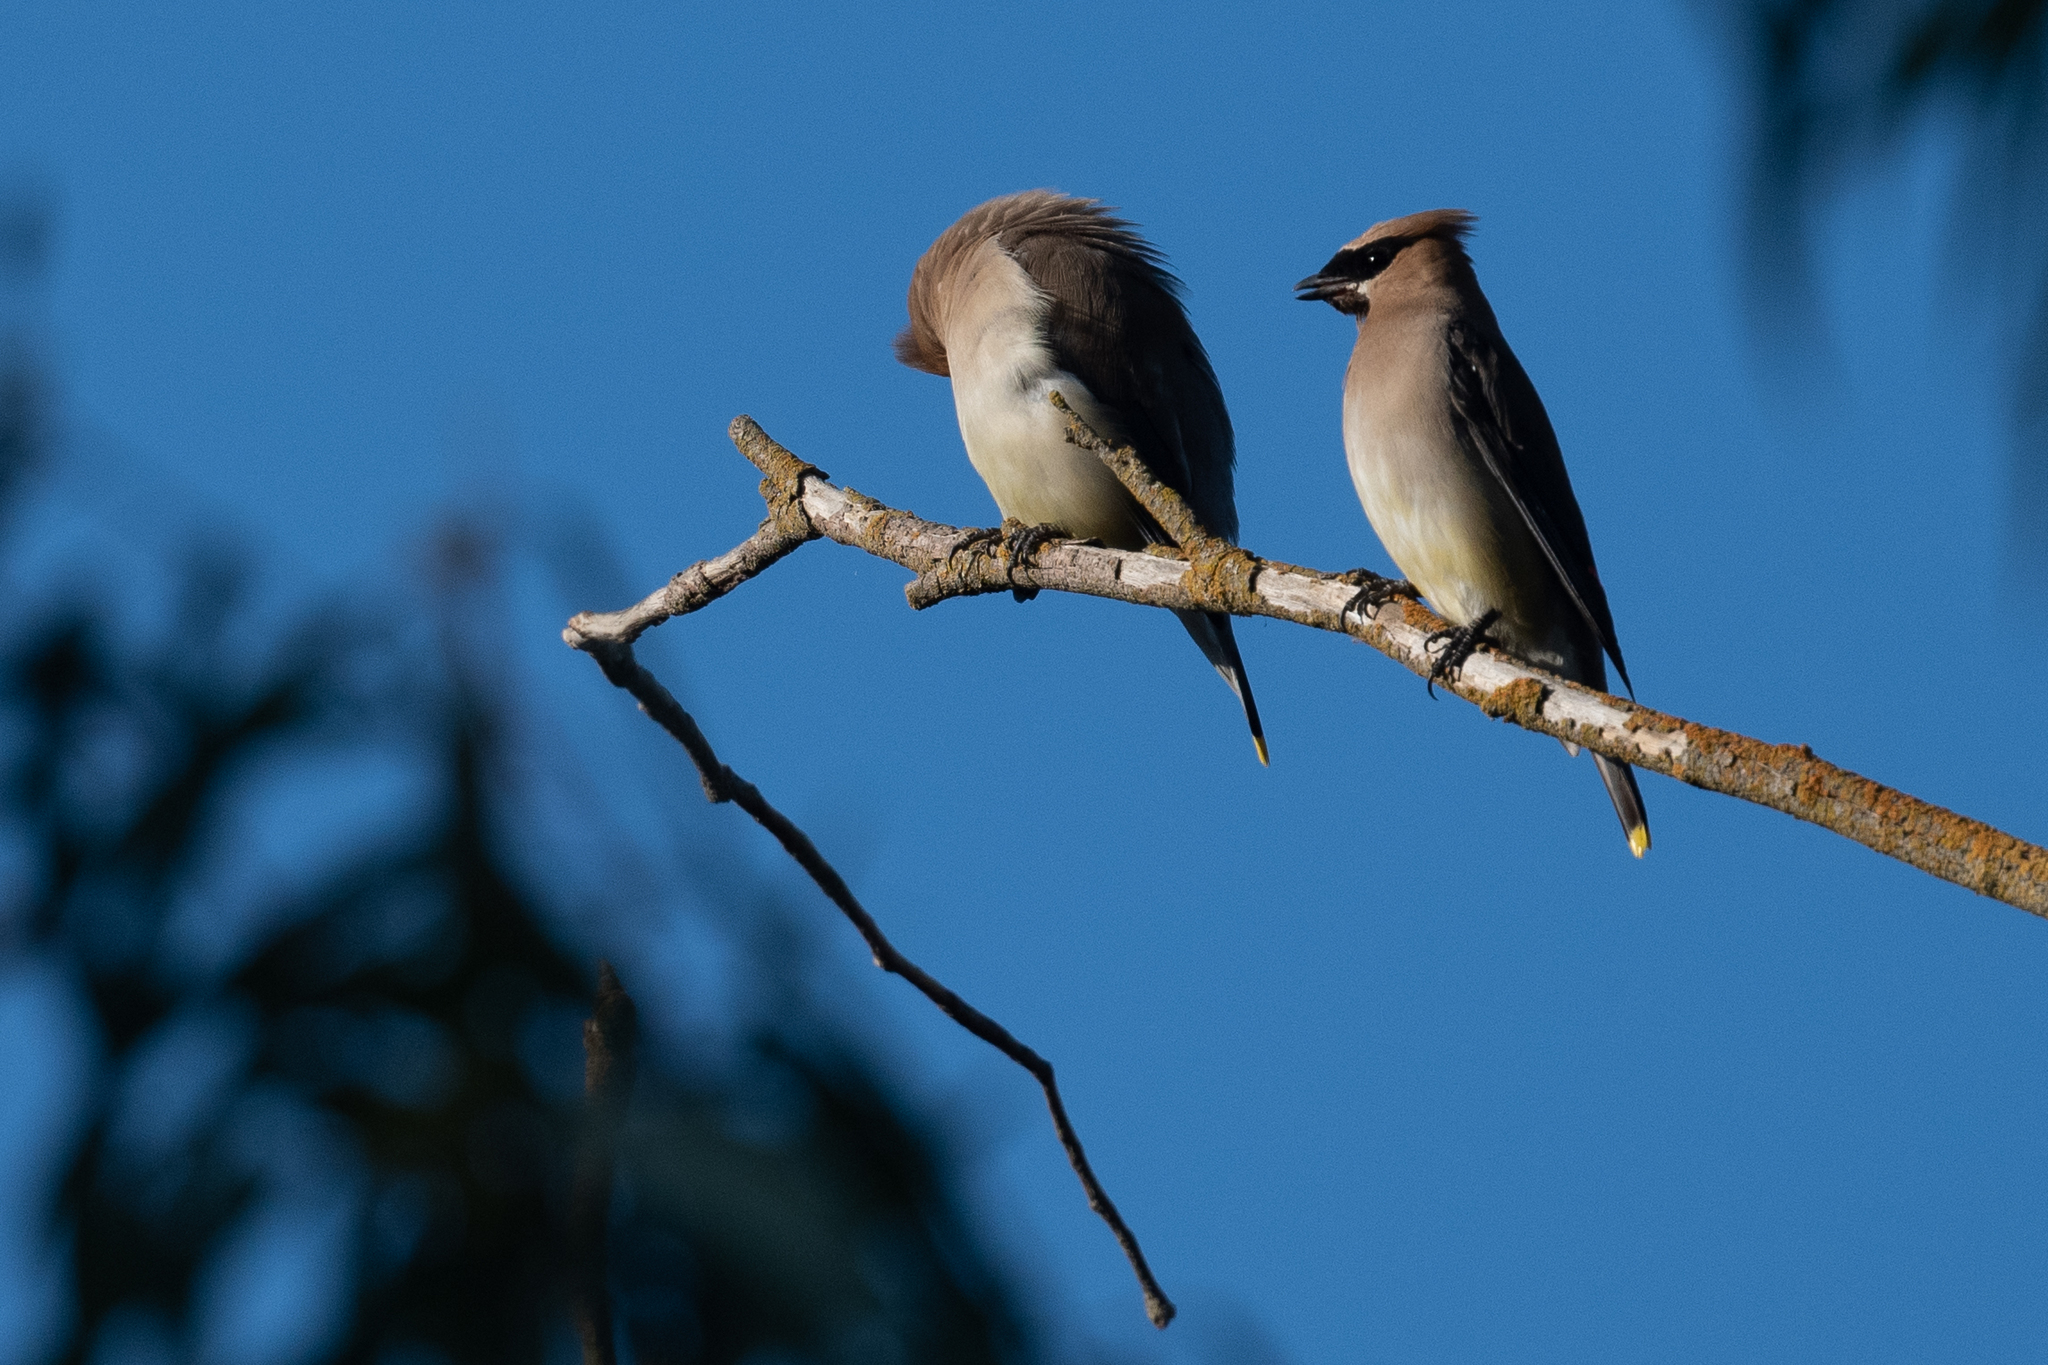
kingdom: Animalia
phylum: Chordata
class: Aves
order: Passeriformes
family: Bombycillidae
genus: Bombycilla
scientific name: Bombycilla cedrorum
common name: Cedar waxwing
